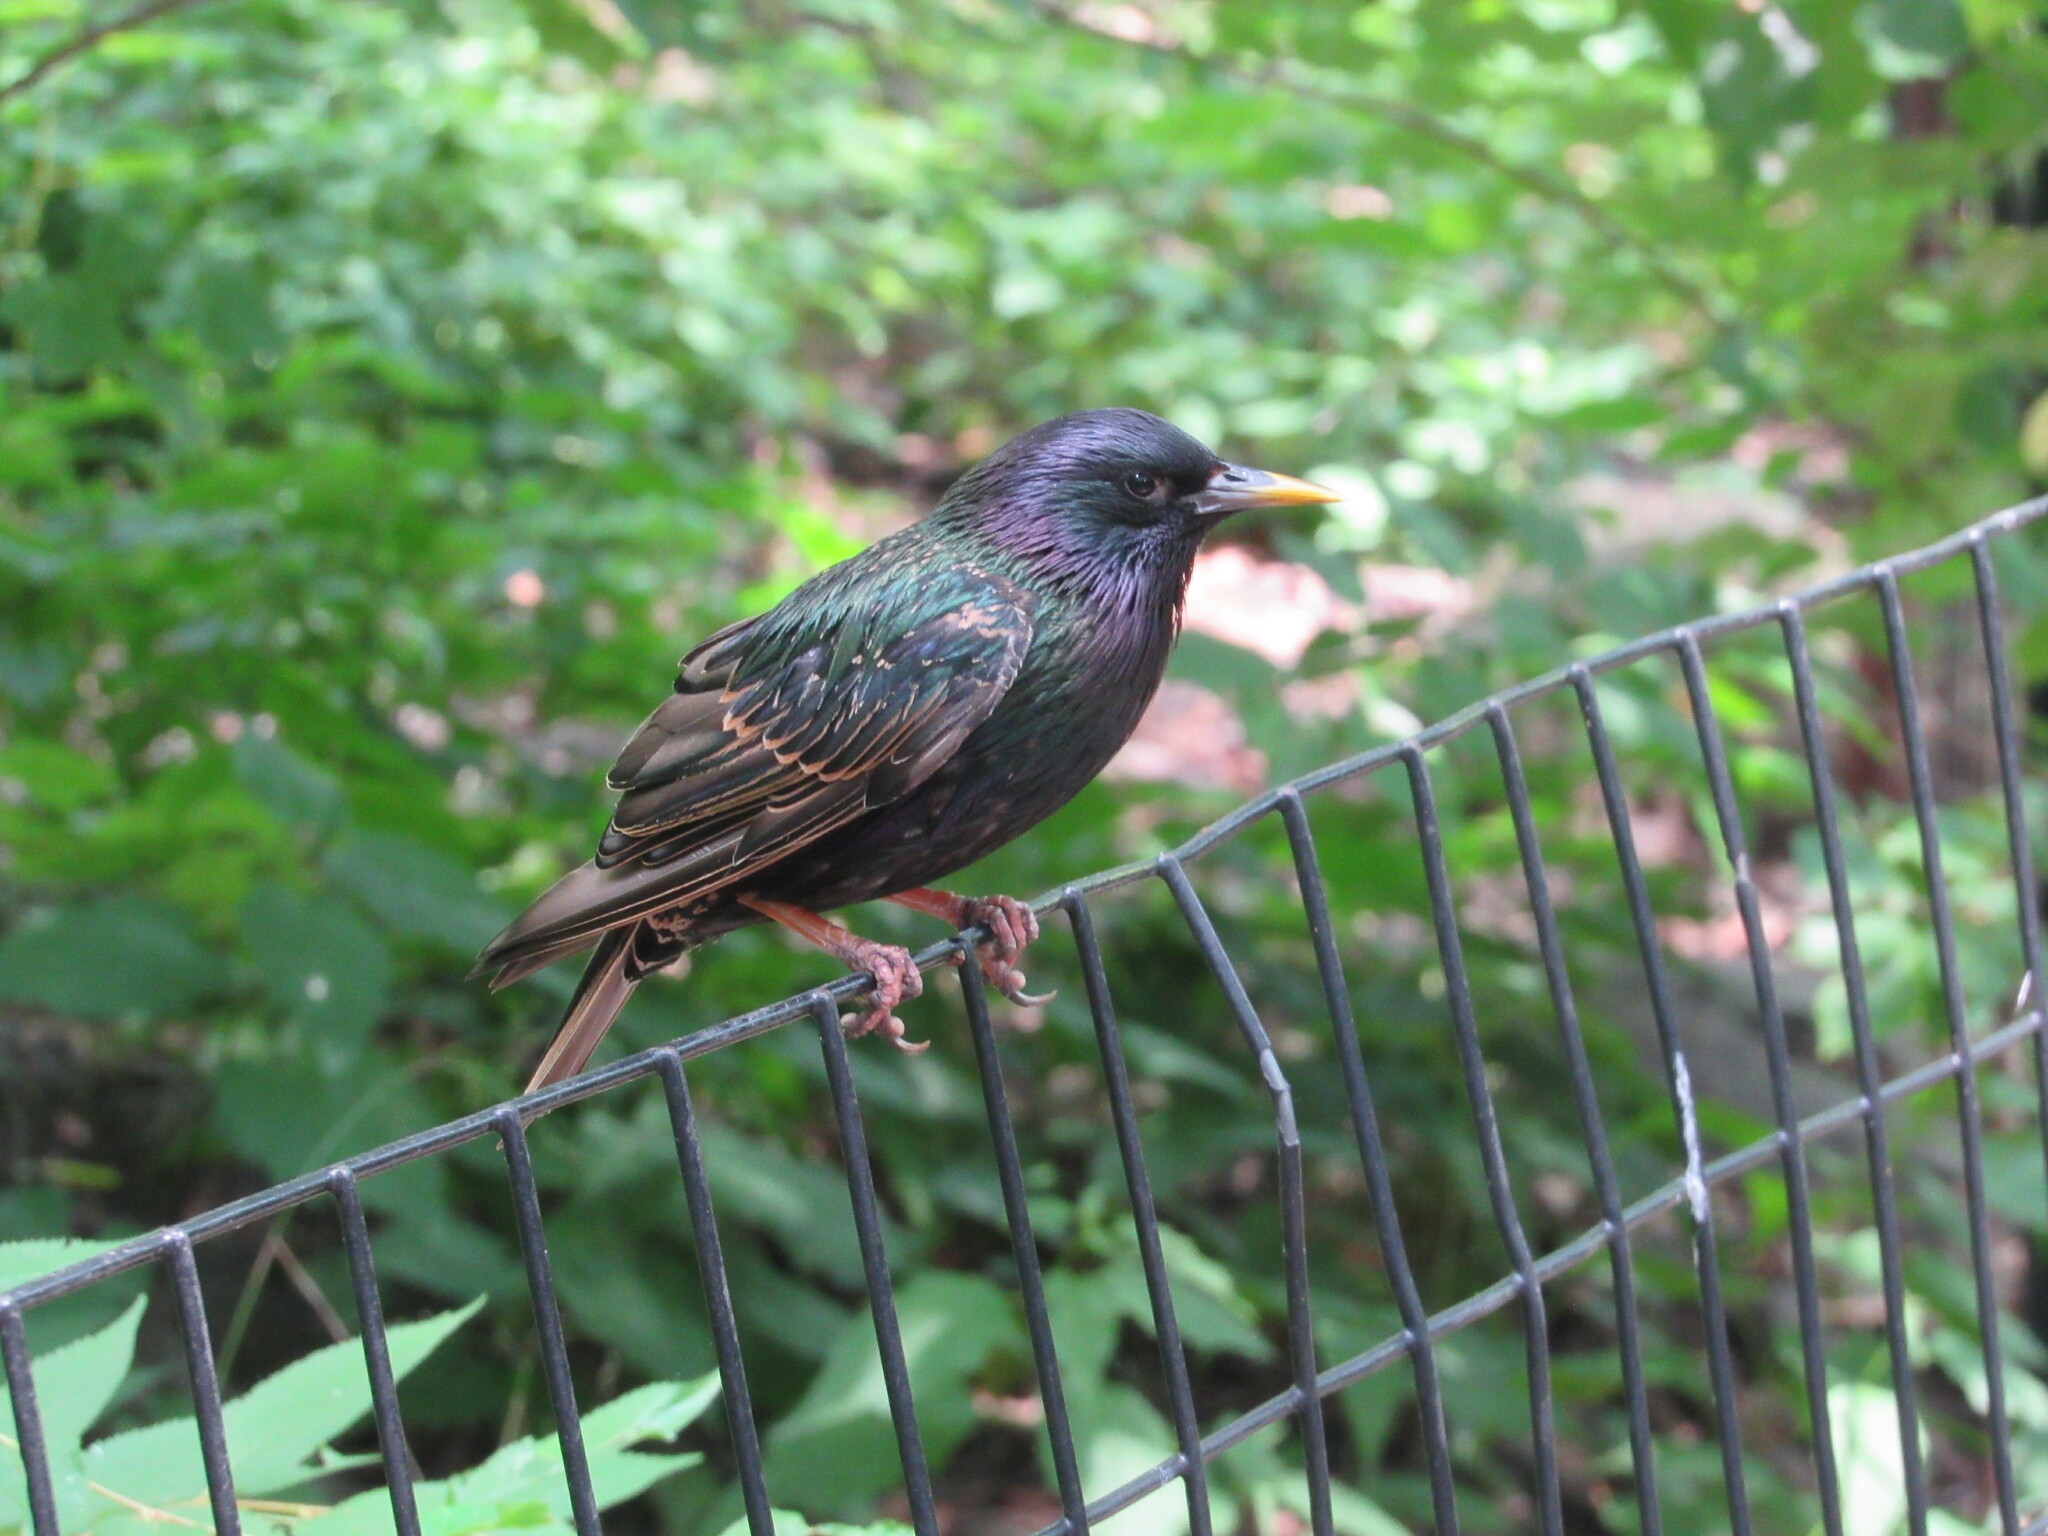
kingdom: Animalia
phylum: Chordata
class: Aves
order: Passeriformes
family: Sturnidae
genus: Sturnus
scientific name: Sturnus vulgaris
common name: Common starling
